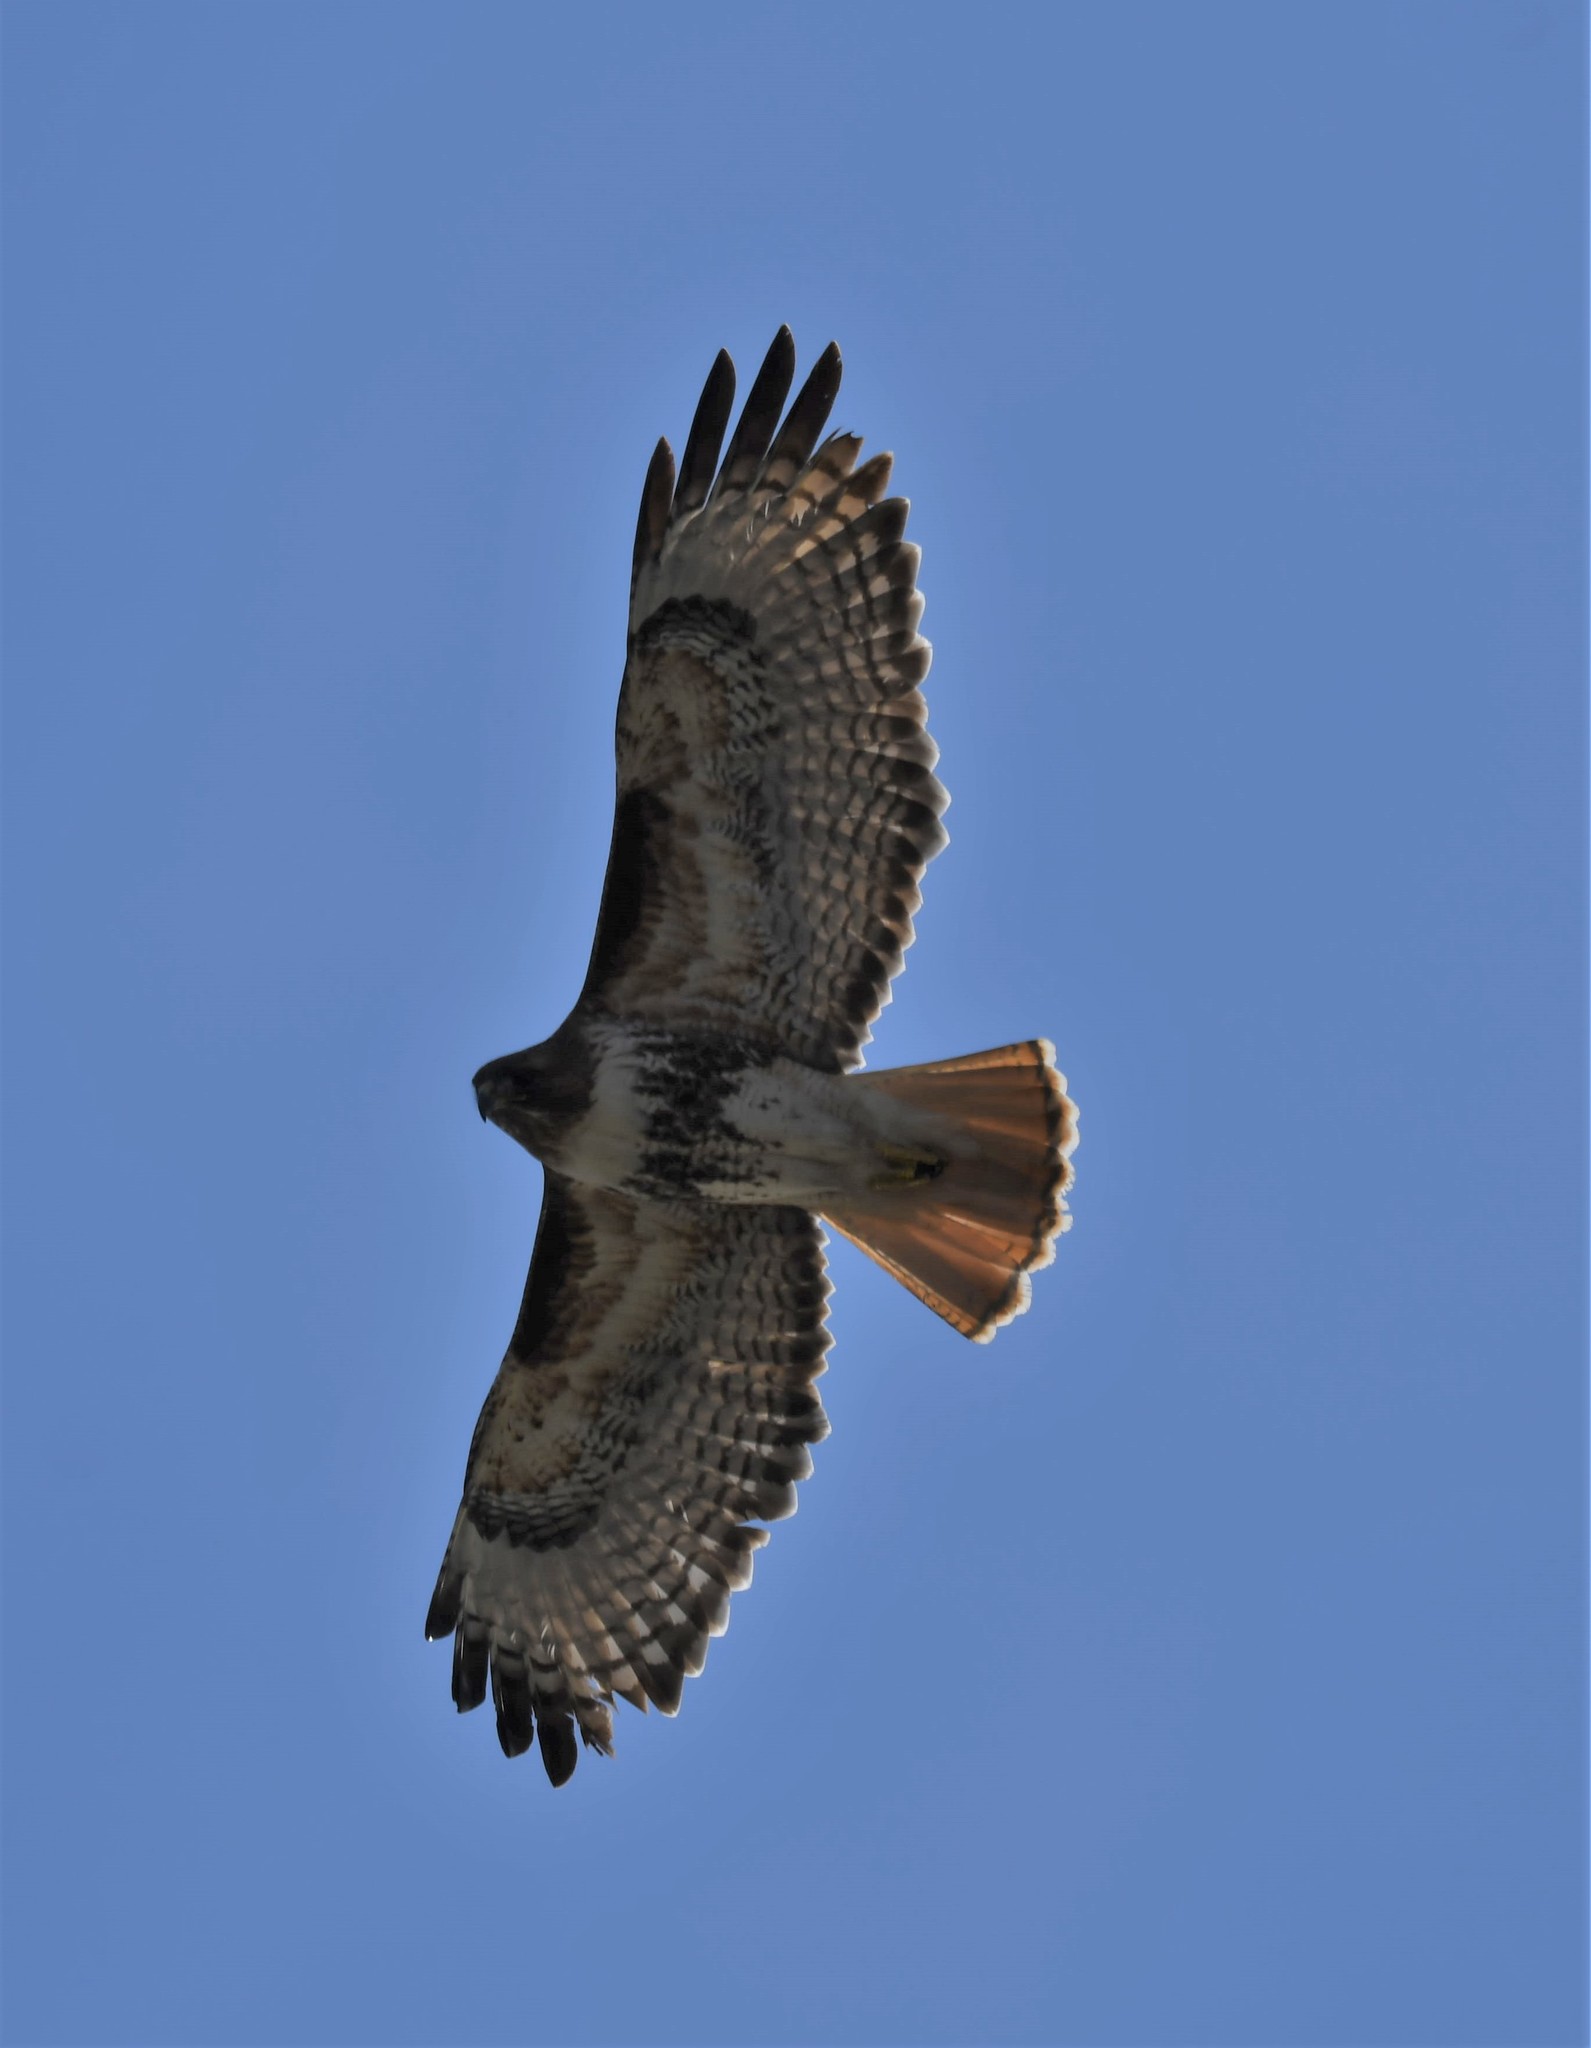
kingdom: Animalia
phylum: Chordata
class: Aves
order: Accipitriformes
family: Accipitridae
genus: Buteo
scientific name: Buteo jamaicensis
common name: Red-tailed hawk
